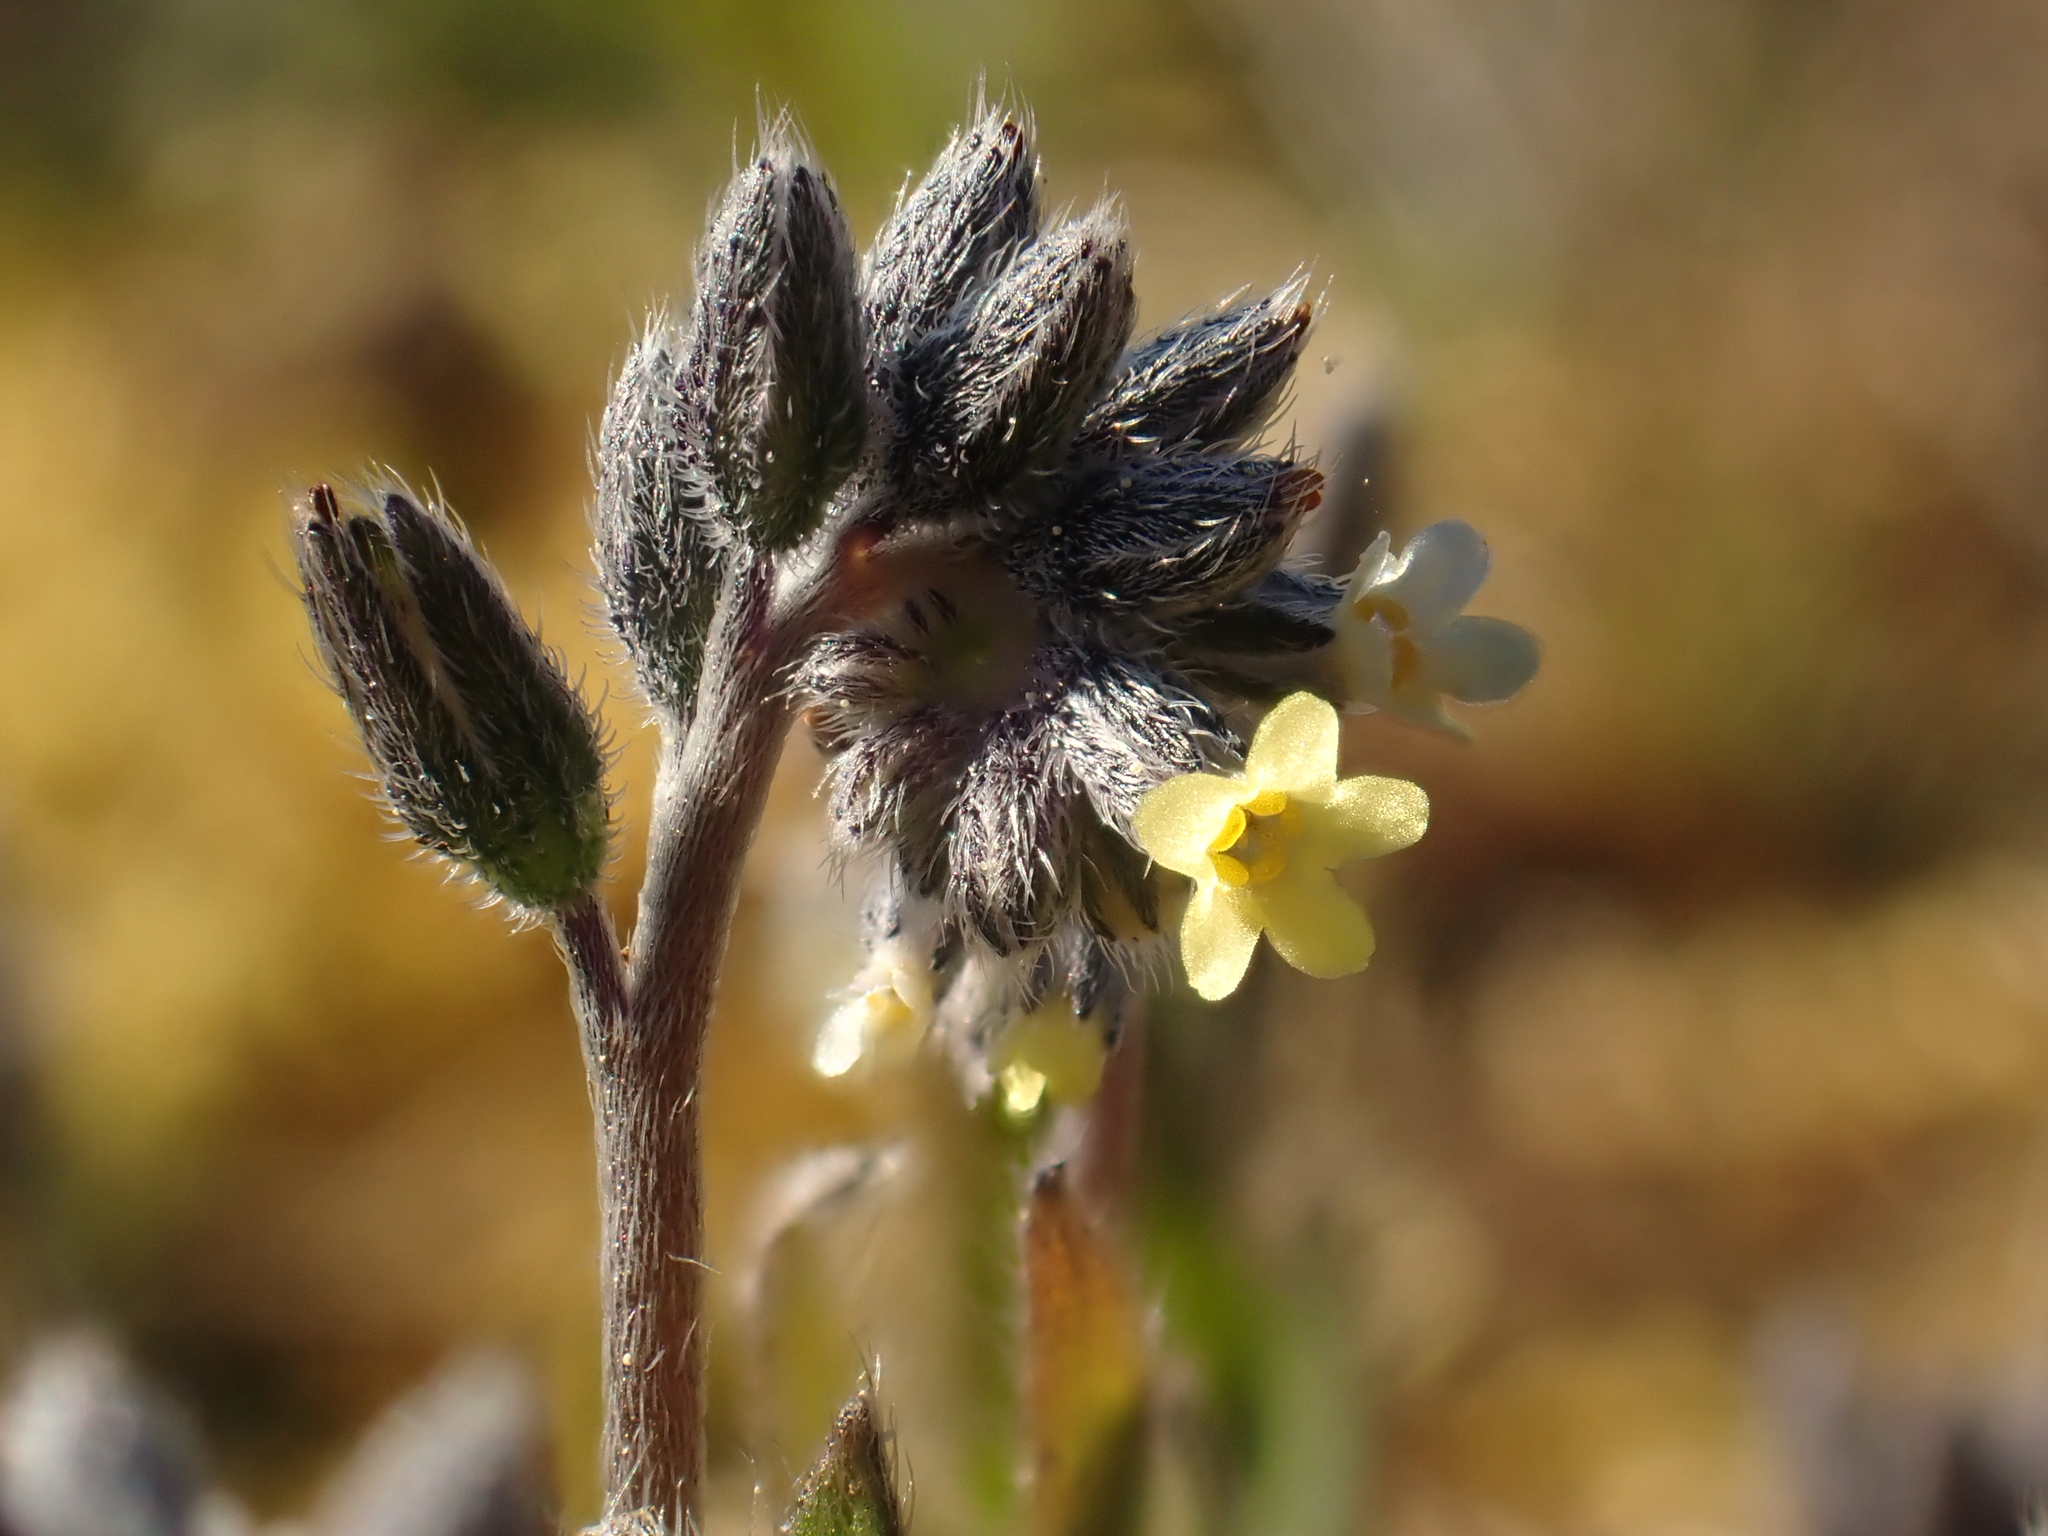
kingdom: Plantae
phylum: Tracheophyta
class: Magnoliopsida
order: Boraginales
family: Boraginaceae
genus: Myosotis
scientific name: Myosotis discolor
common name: Changing forget-me-not
